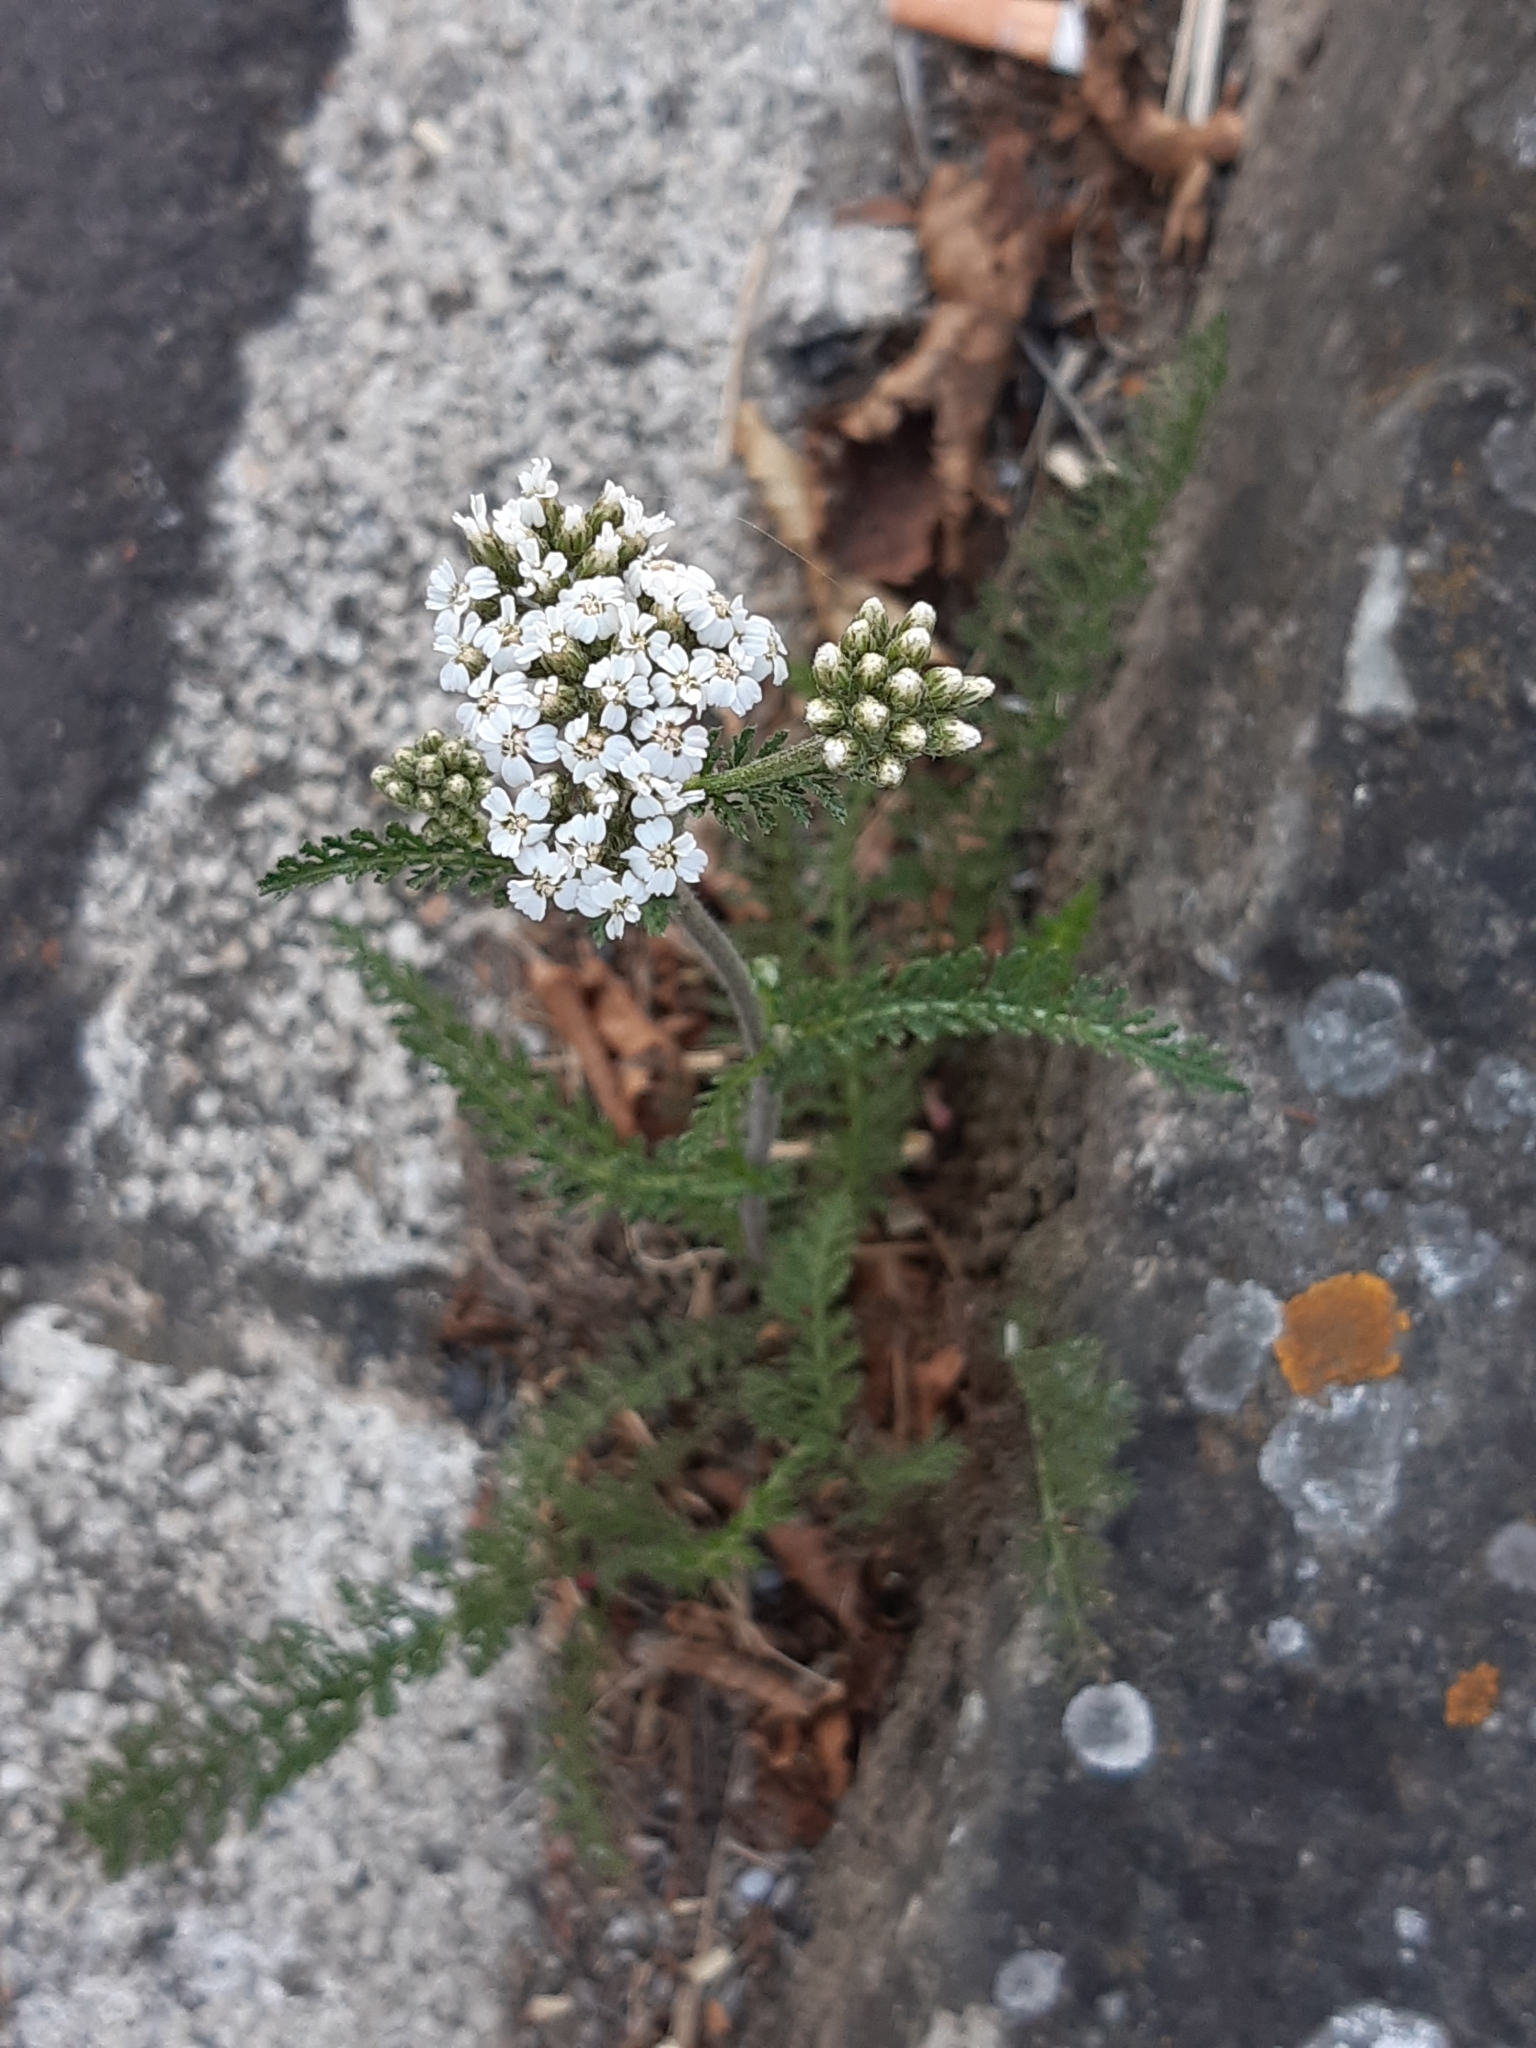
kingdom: Plantae
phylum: Tracheophyta
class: Magnoliopsida
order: Asterales
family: Asteraceae
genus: Achillea
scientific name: Achillea millefolium
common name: Yarrow
